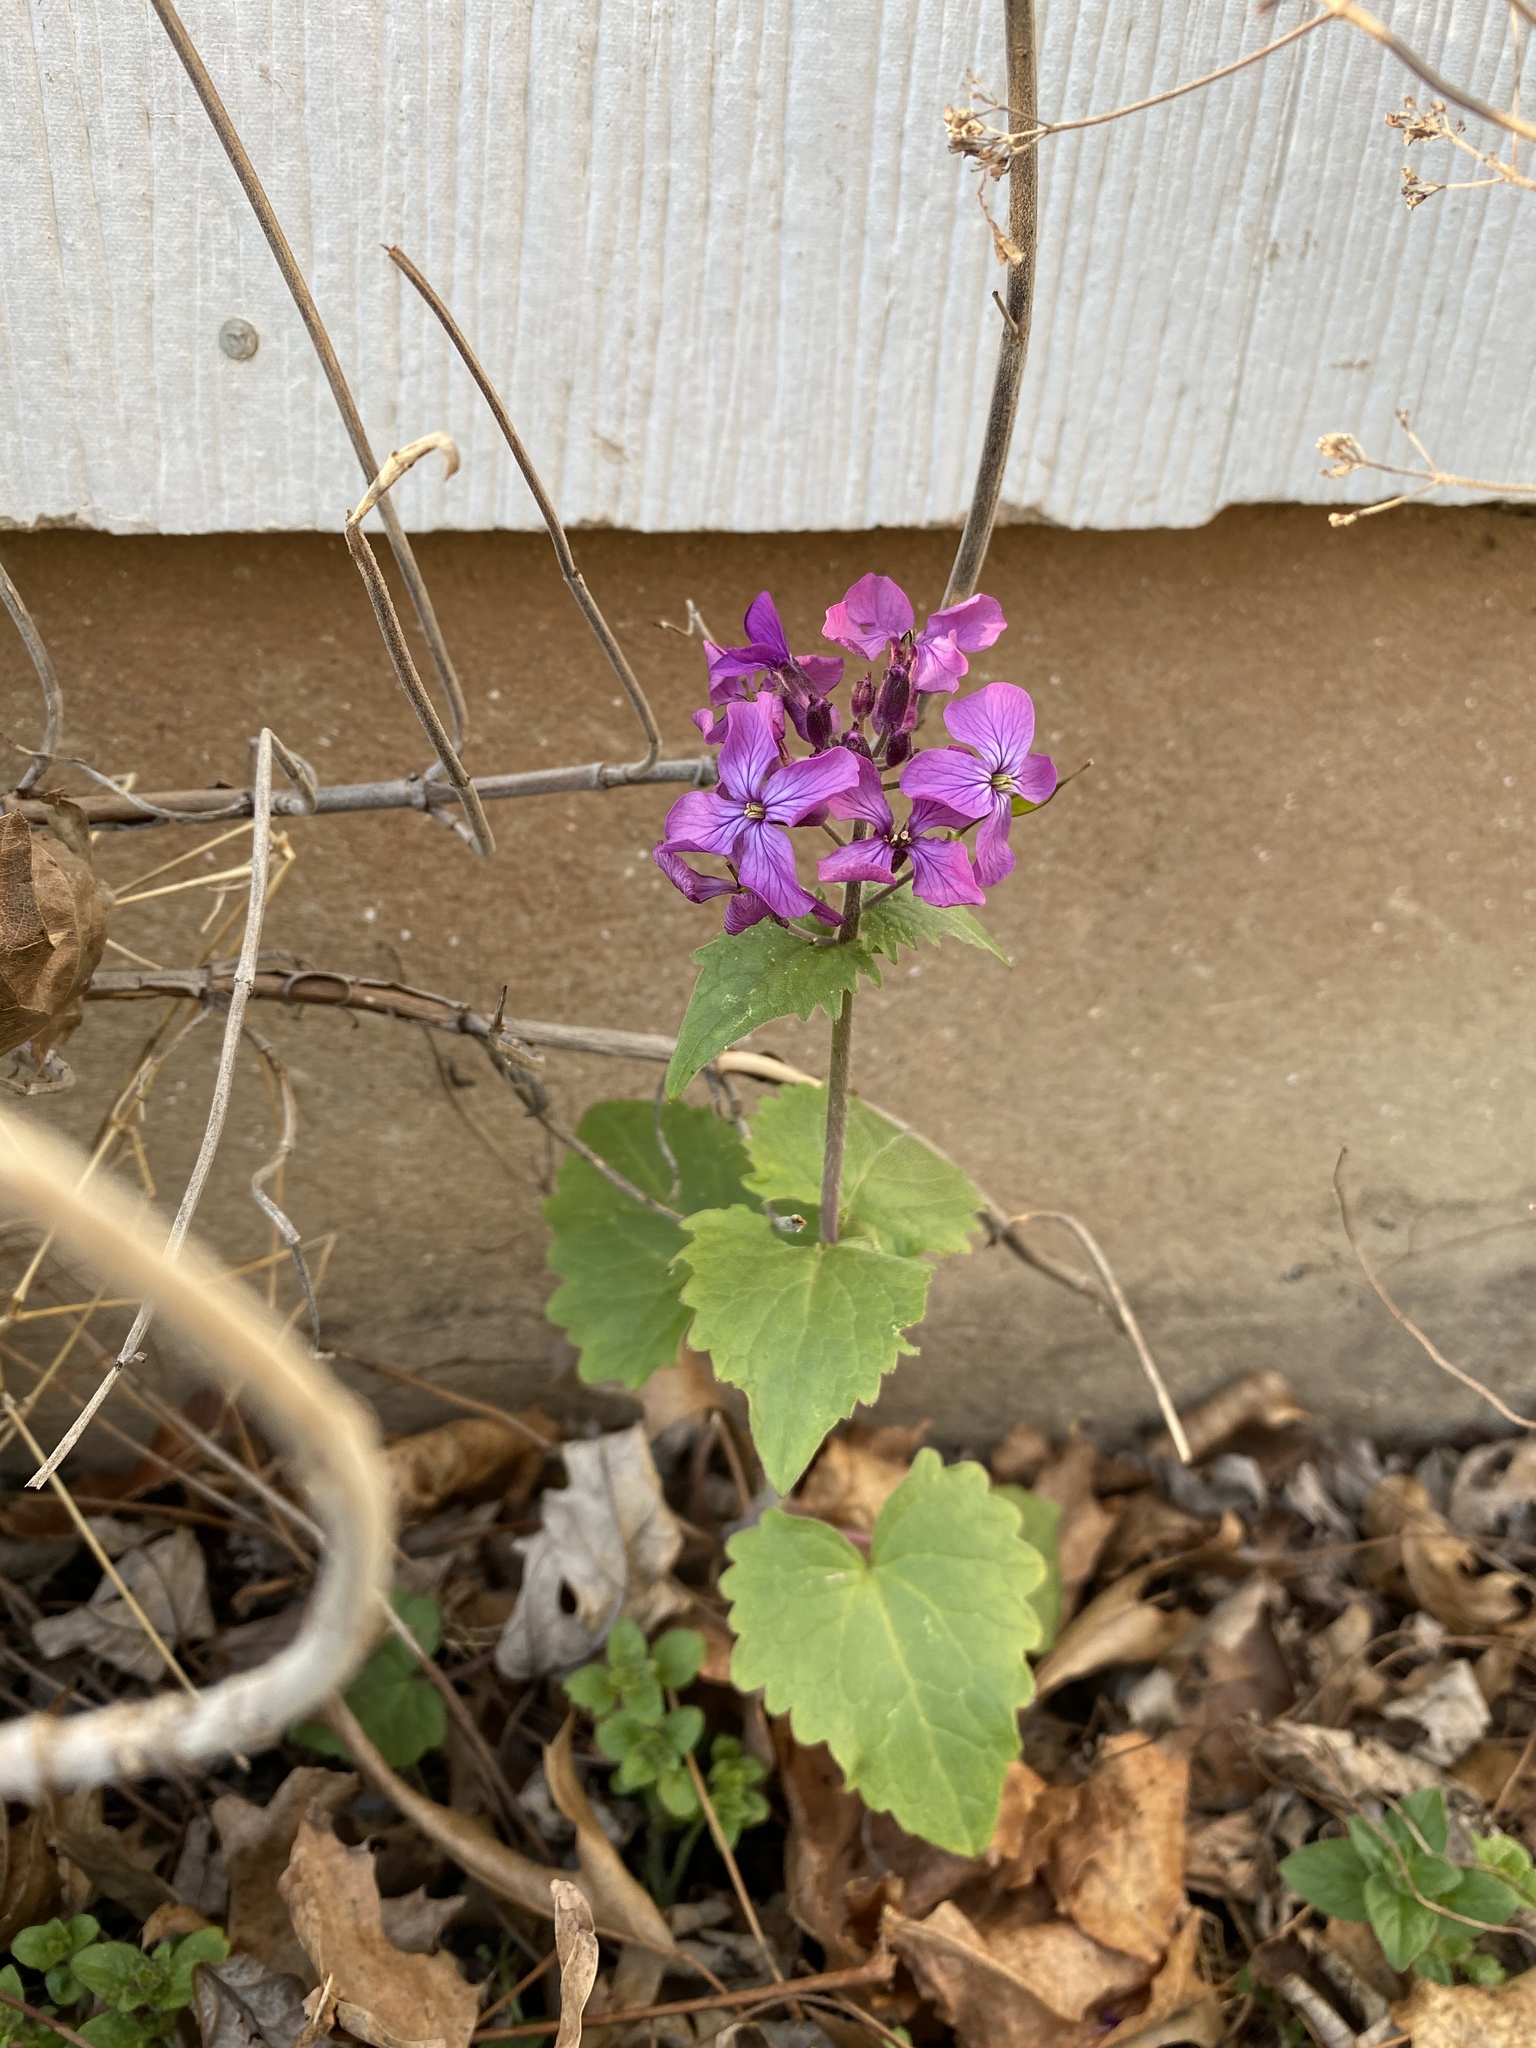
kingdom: Plantae
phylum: Tracheophyta
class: Magnoliopsida
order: Brassicales
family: Brassicaceae
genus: Lunaria
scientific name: Lunaria annua
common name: Honesty
